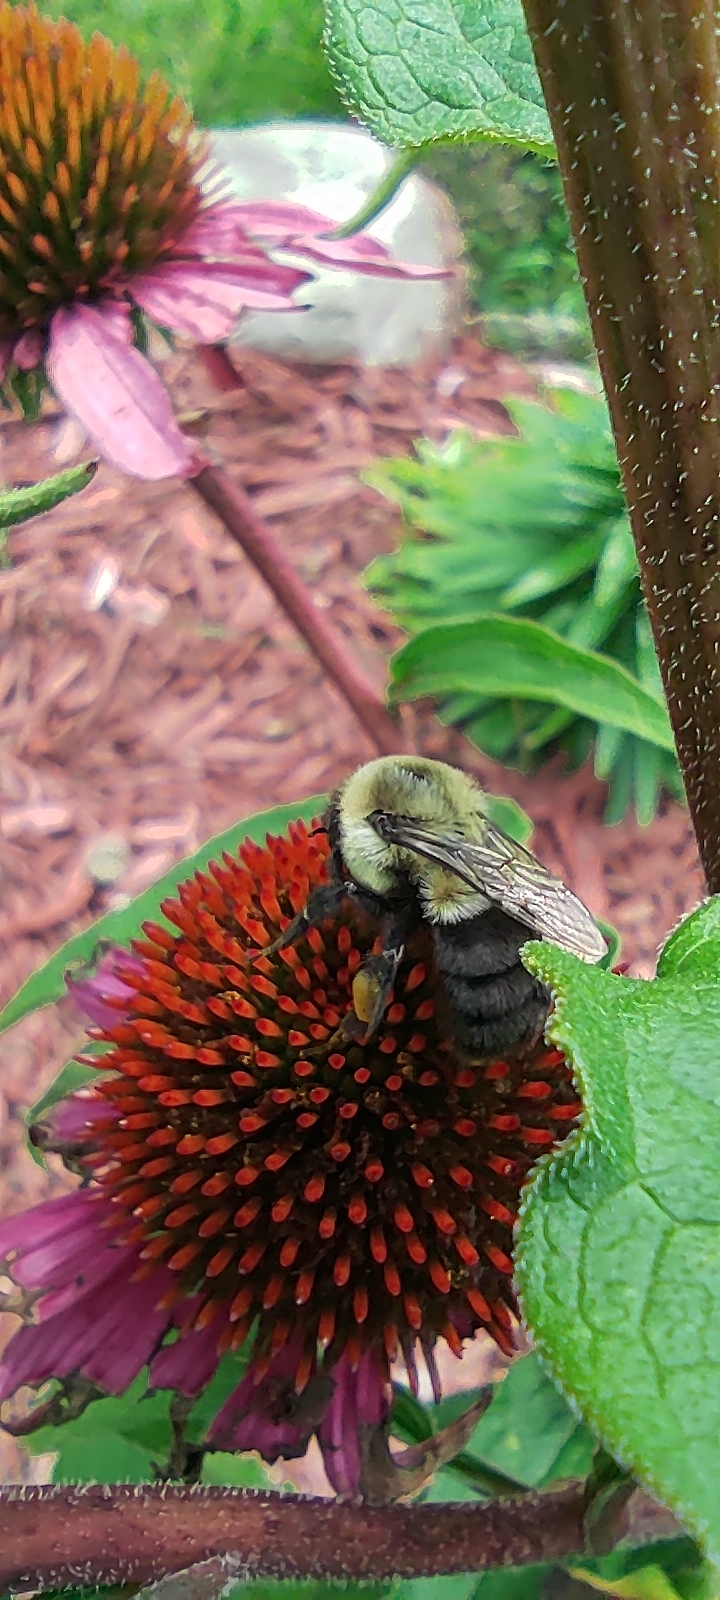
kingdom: Animalia
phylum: Arthropoda
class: Insecta
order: Hymenoptera
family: Apidae
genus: Bombus
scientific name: Bombus impatiens
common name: Common eastern bumble bee
